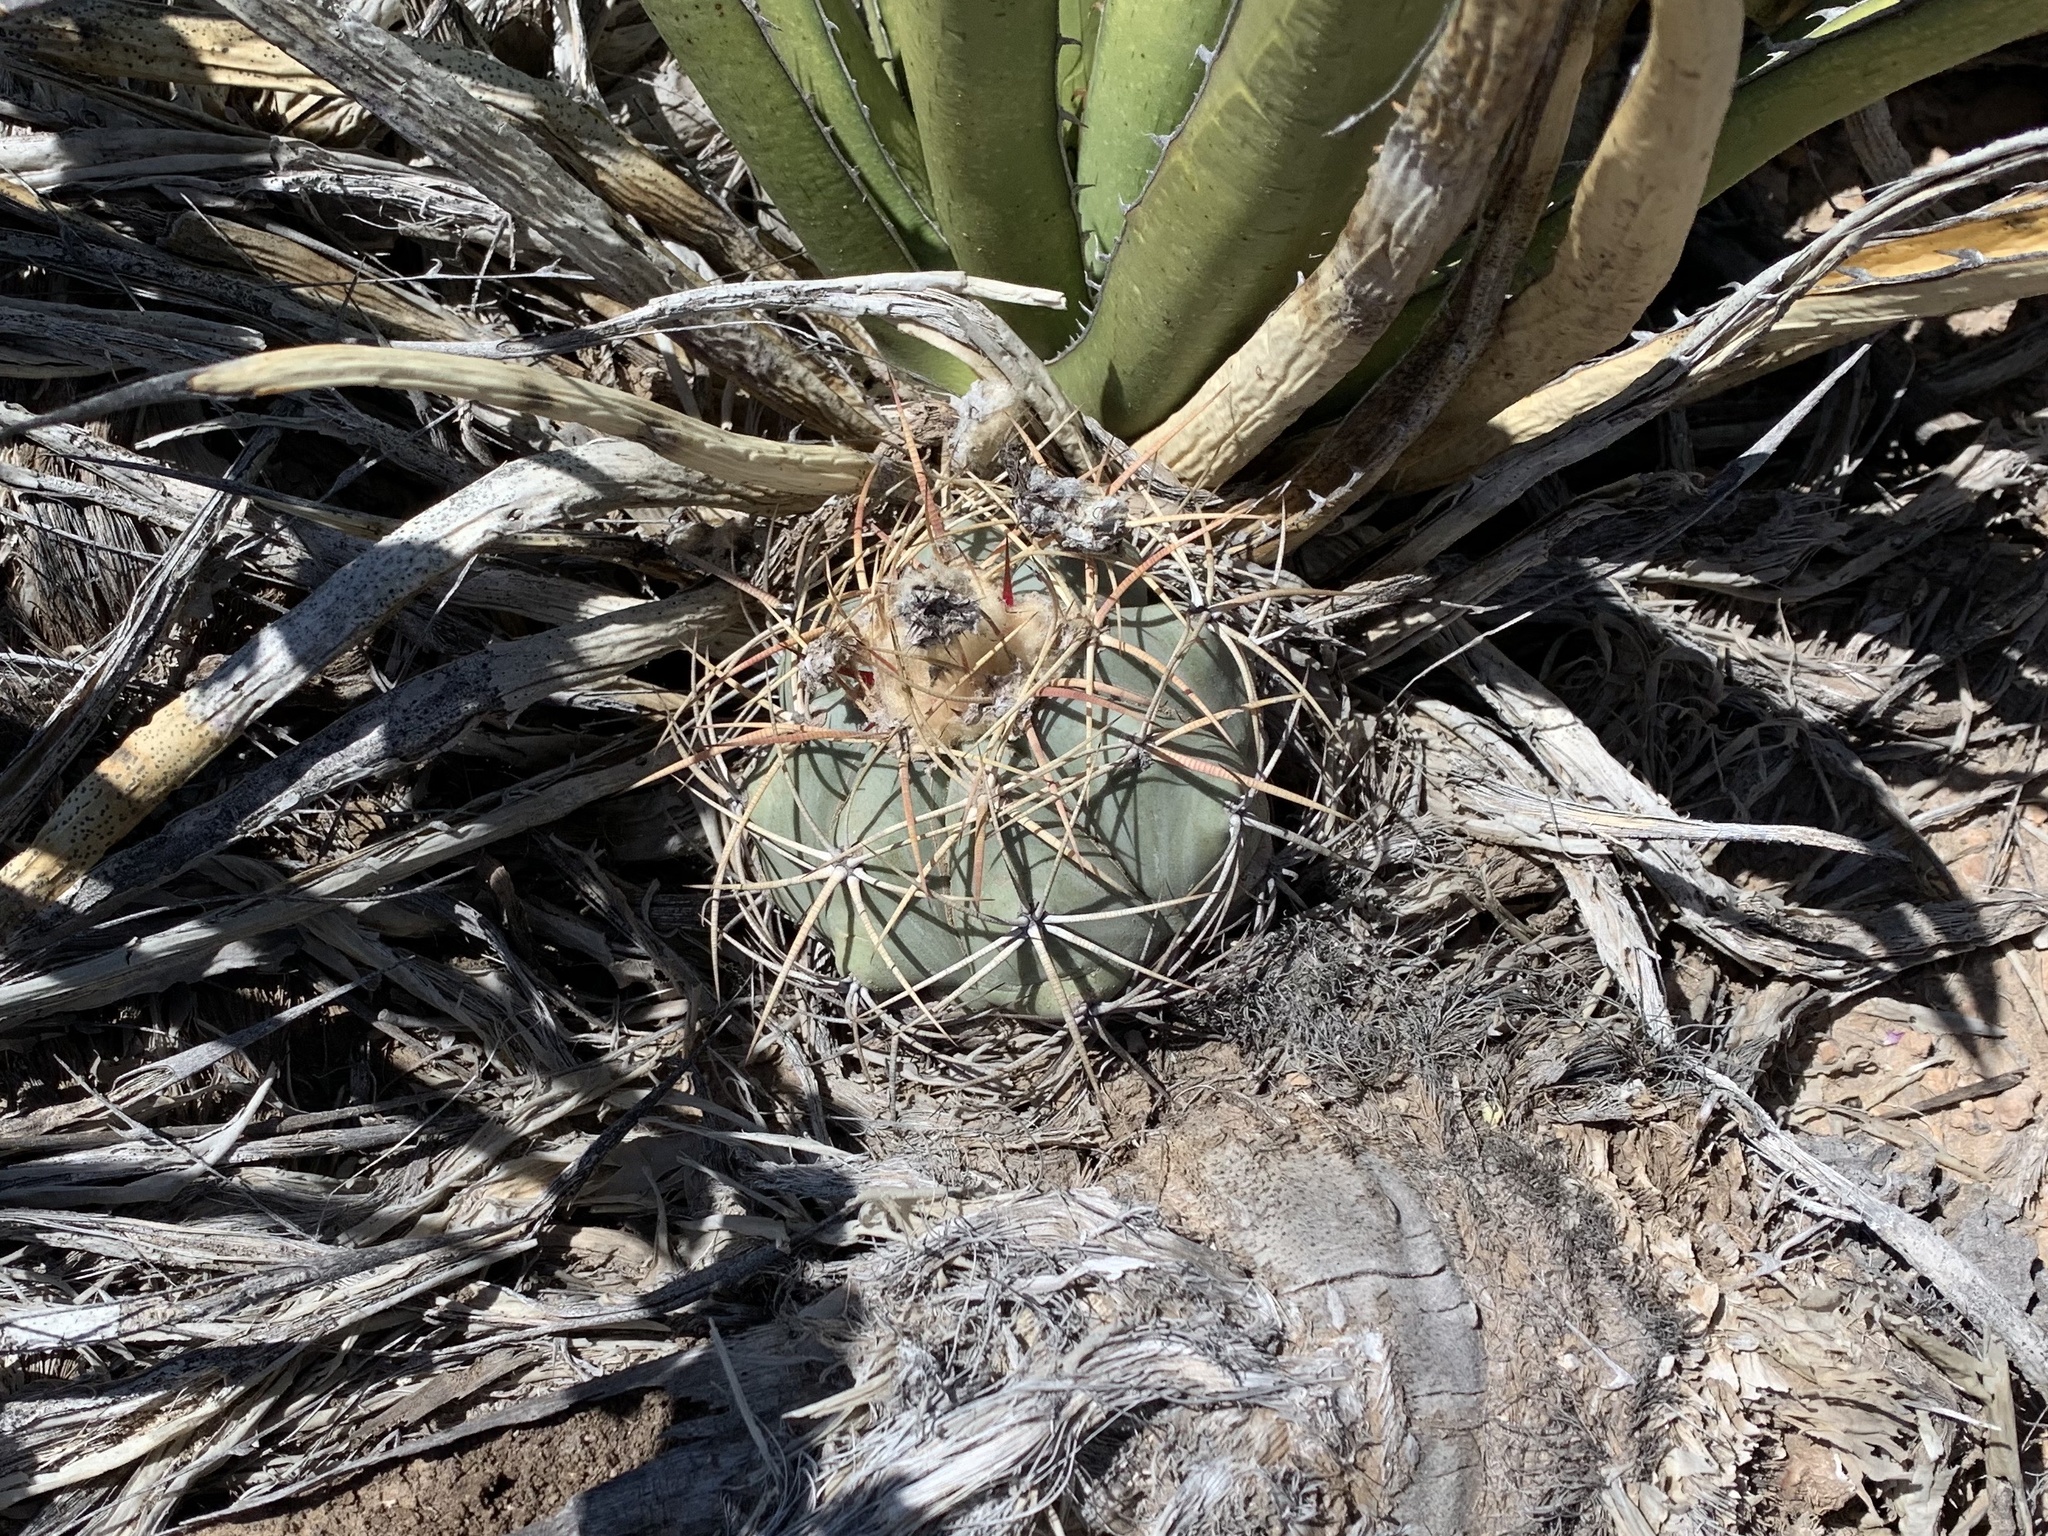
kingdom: Plantae
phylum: Tracheophyta
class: Magnoliopsida
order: Caryophyllales
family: Cactaceae
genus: Echinocactus
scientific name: Echinocactus horizonthalonius
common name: Devilshead
